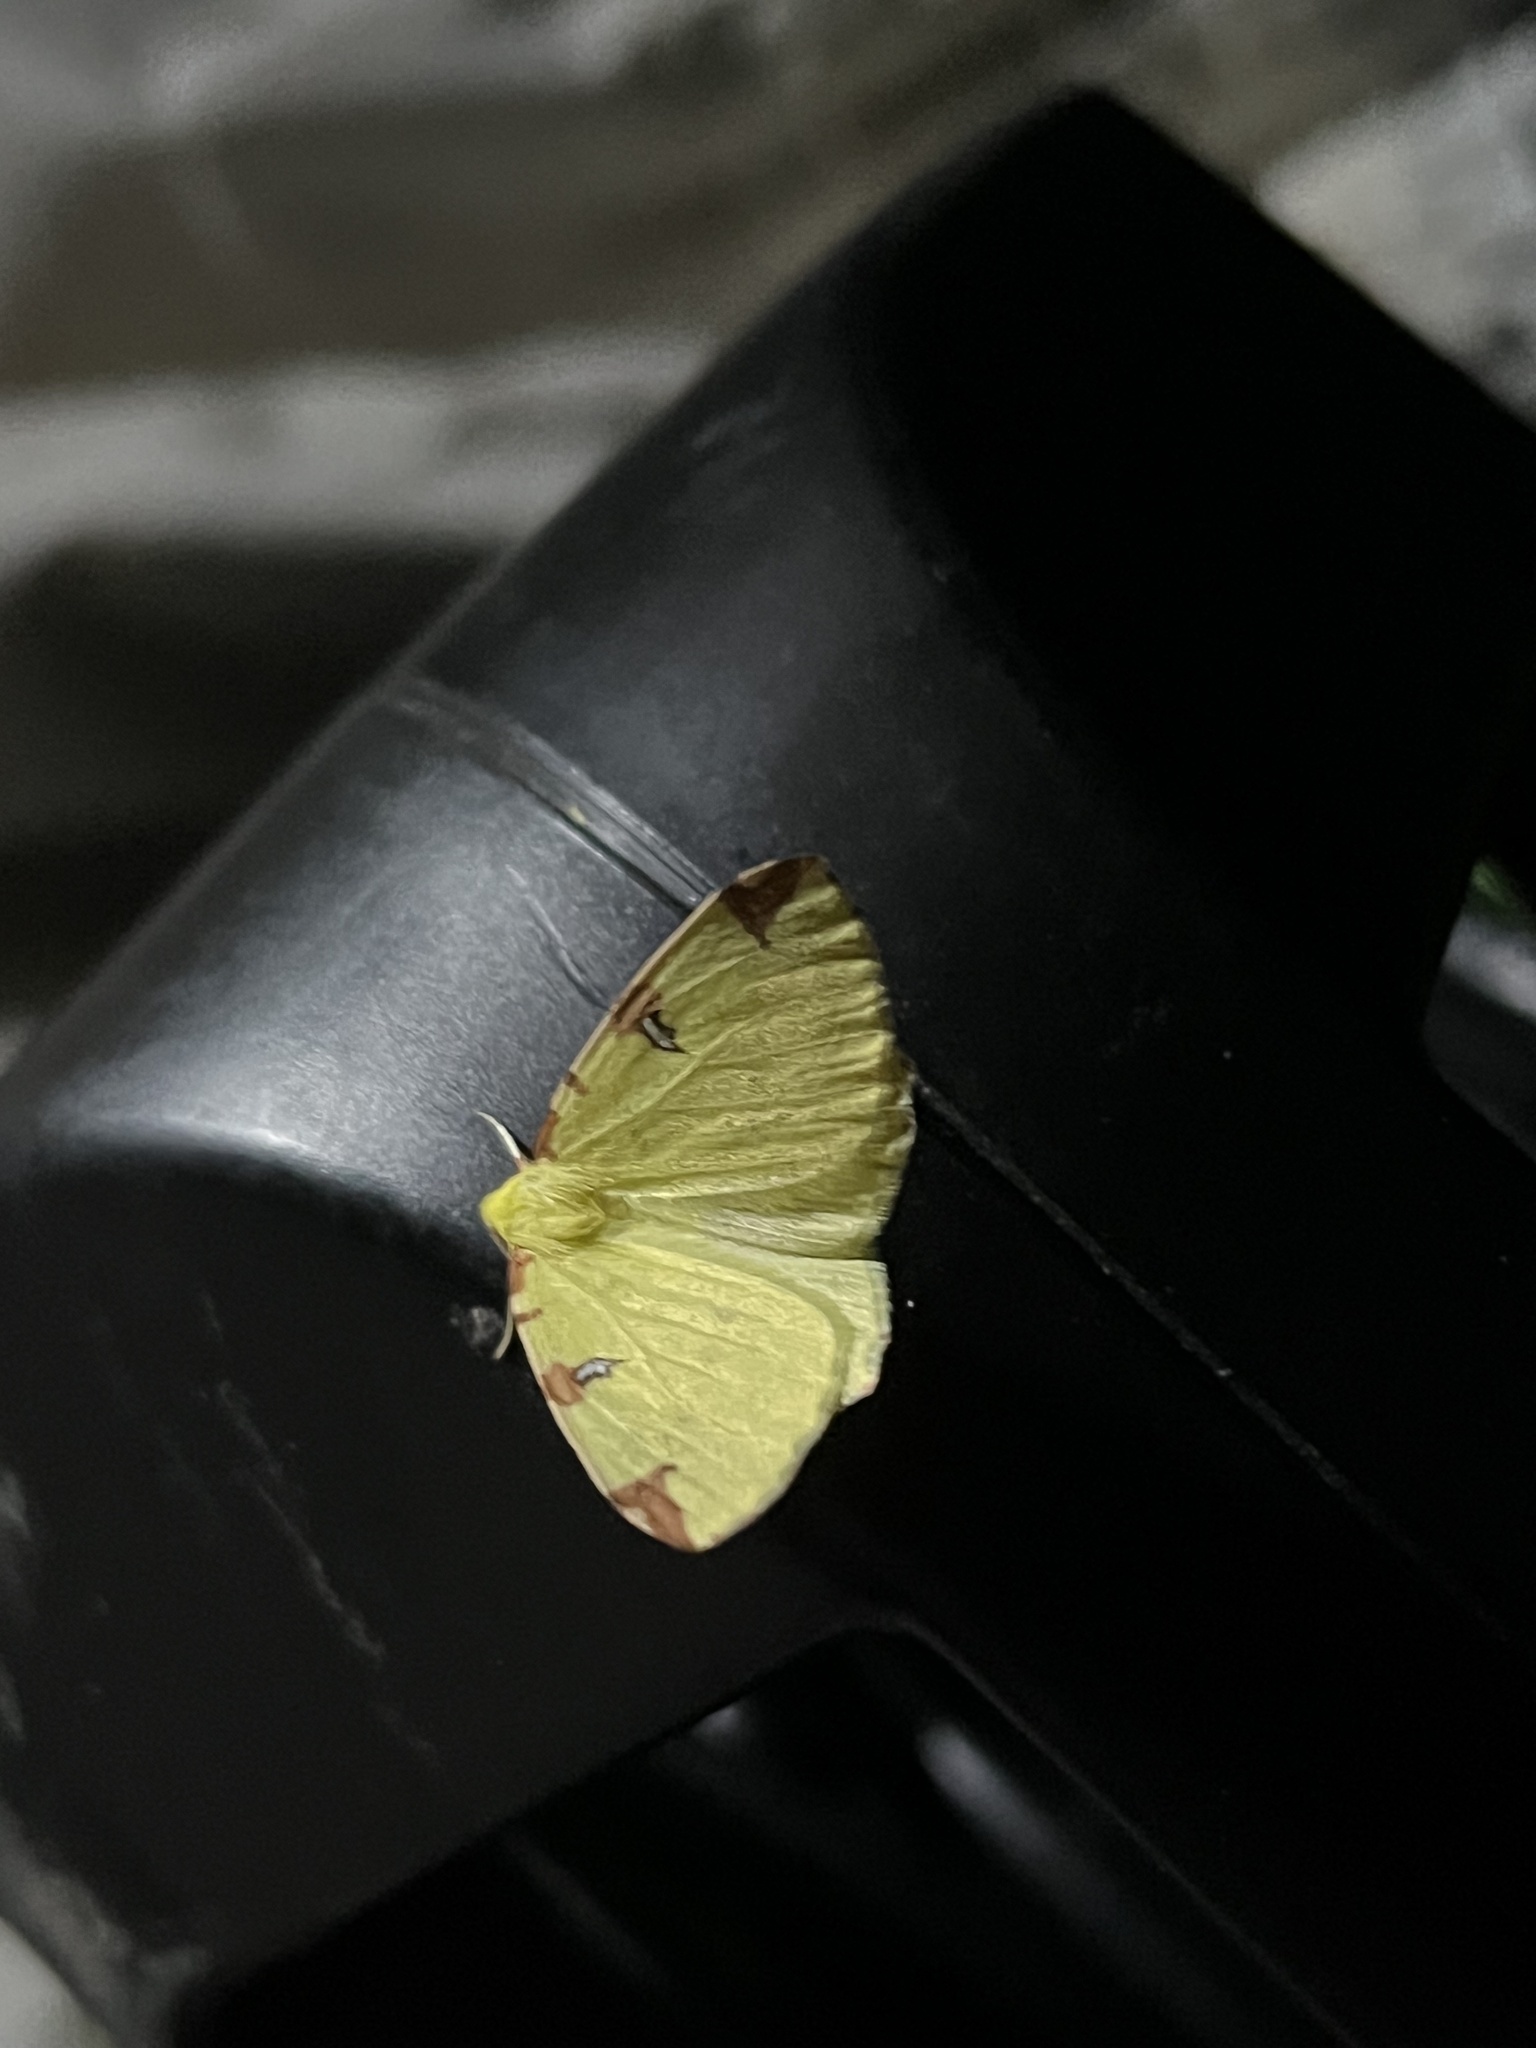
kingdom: Animalia
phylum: Arthropoda
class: Insecta
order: Lepidoptera
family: Geometridae
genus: Opisthograptis
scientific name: Opisthograptis luteolata
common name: Brimstone moth
